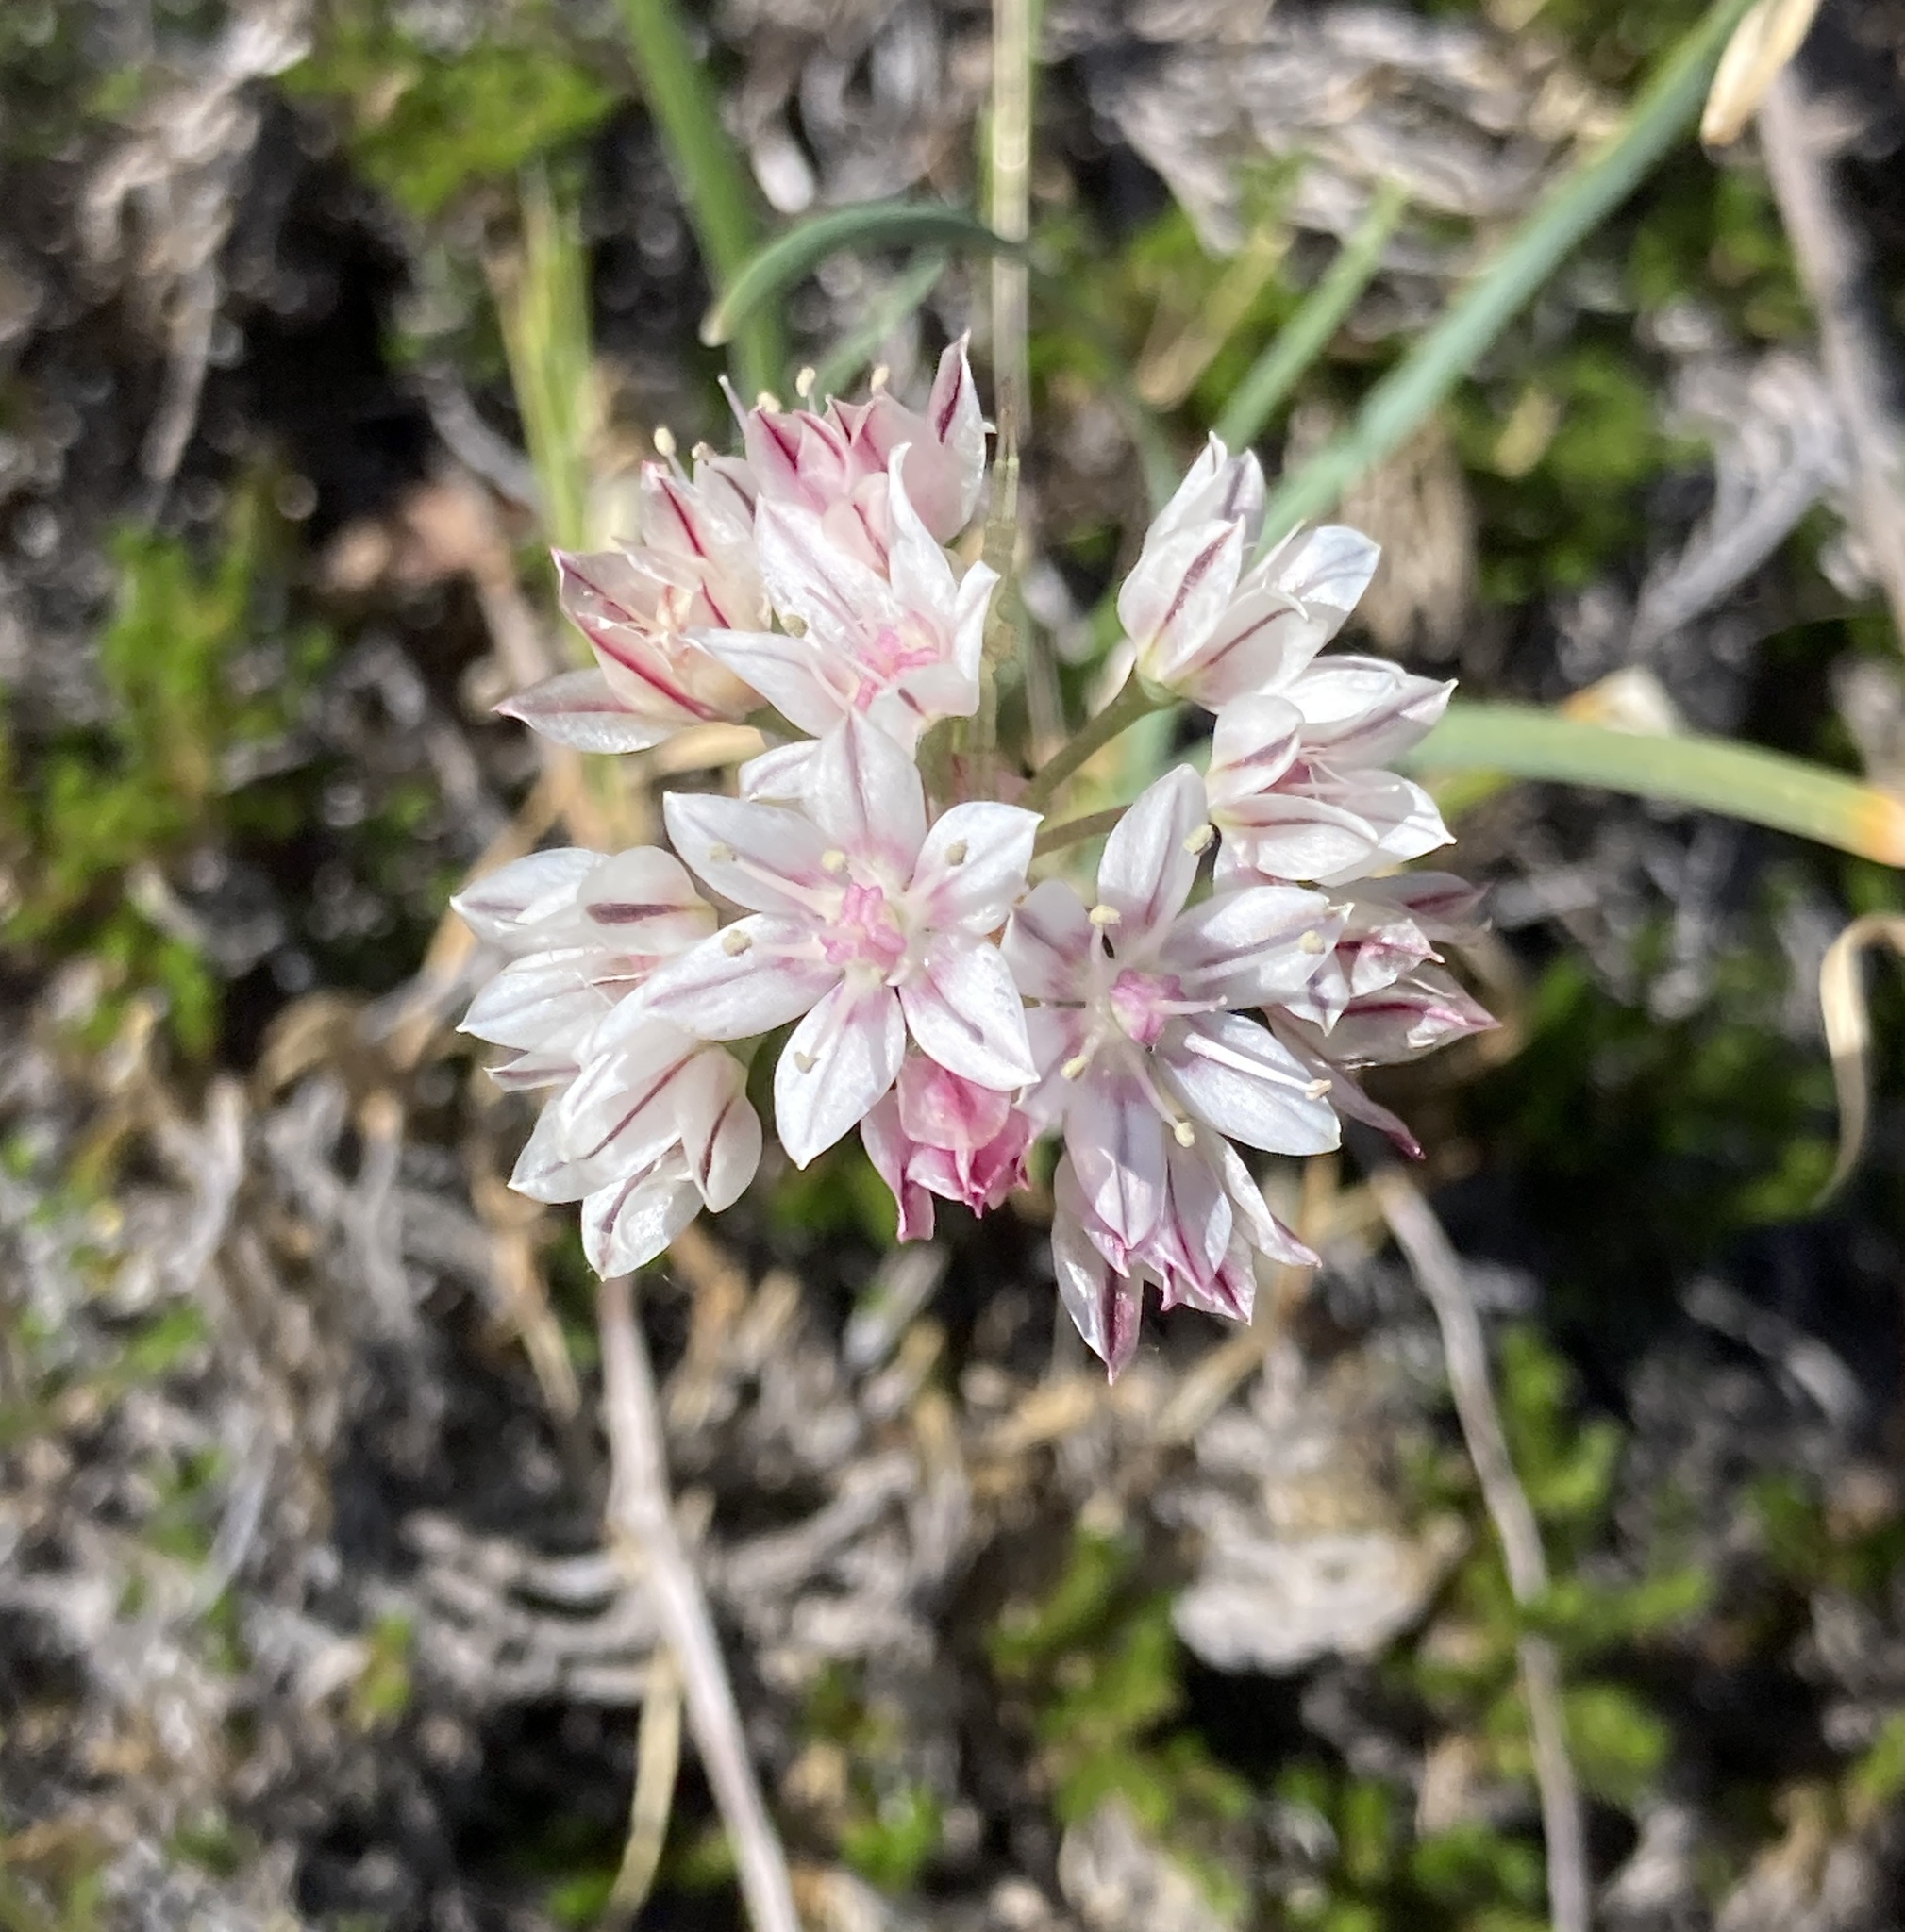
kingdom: Plantae
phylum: Tracheophyta
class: Liliopsida
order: Asparagales
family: Amaryllidaceae
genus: Allium
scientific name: Allium haematochiton
